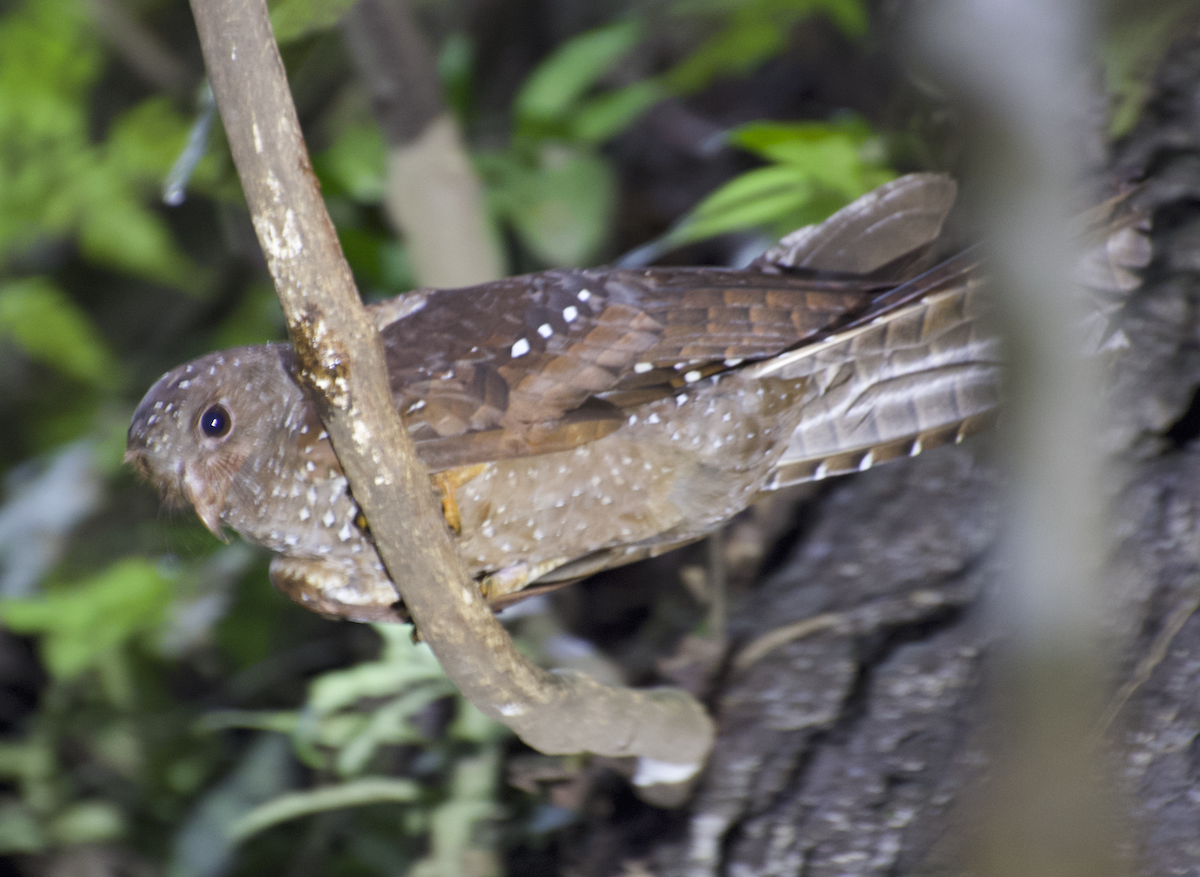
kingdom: Animalia
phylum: Chordata
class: Aves
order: Steatornithiformes
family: Steatornithidae
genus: Steatornis
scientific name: Steatornis caripensis
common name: Oilbird
